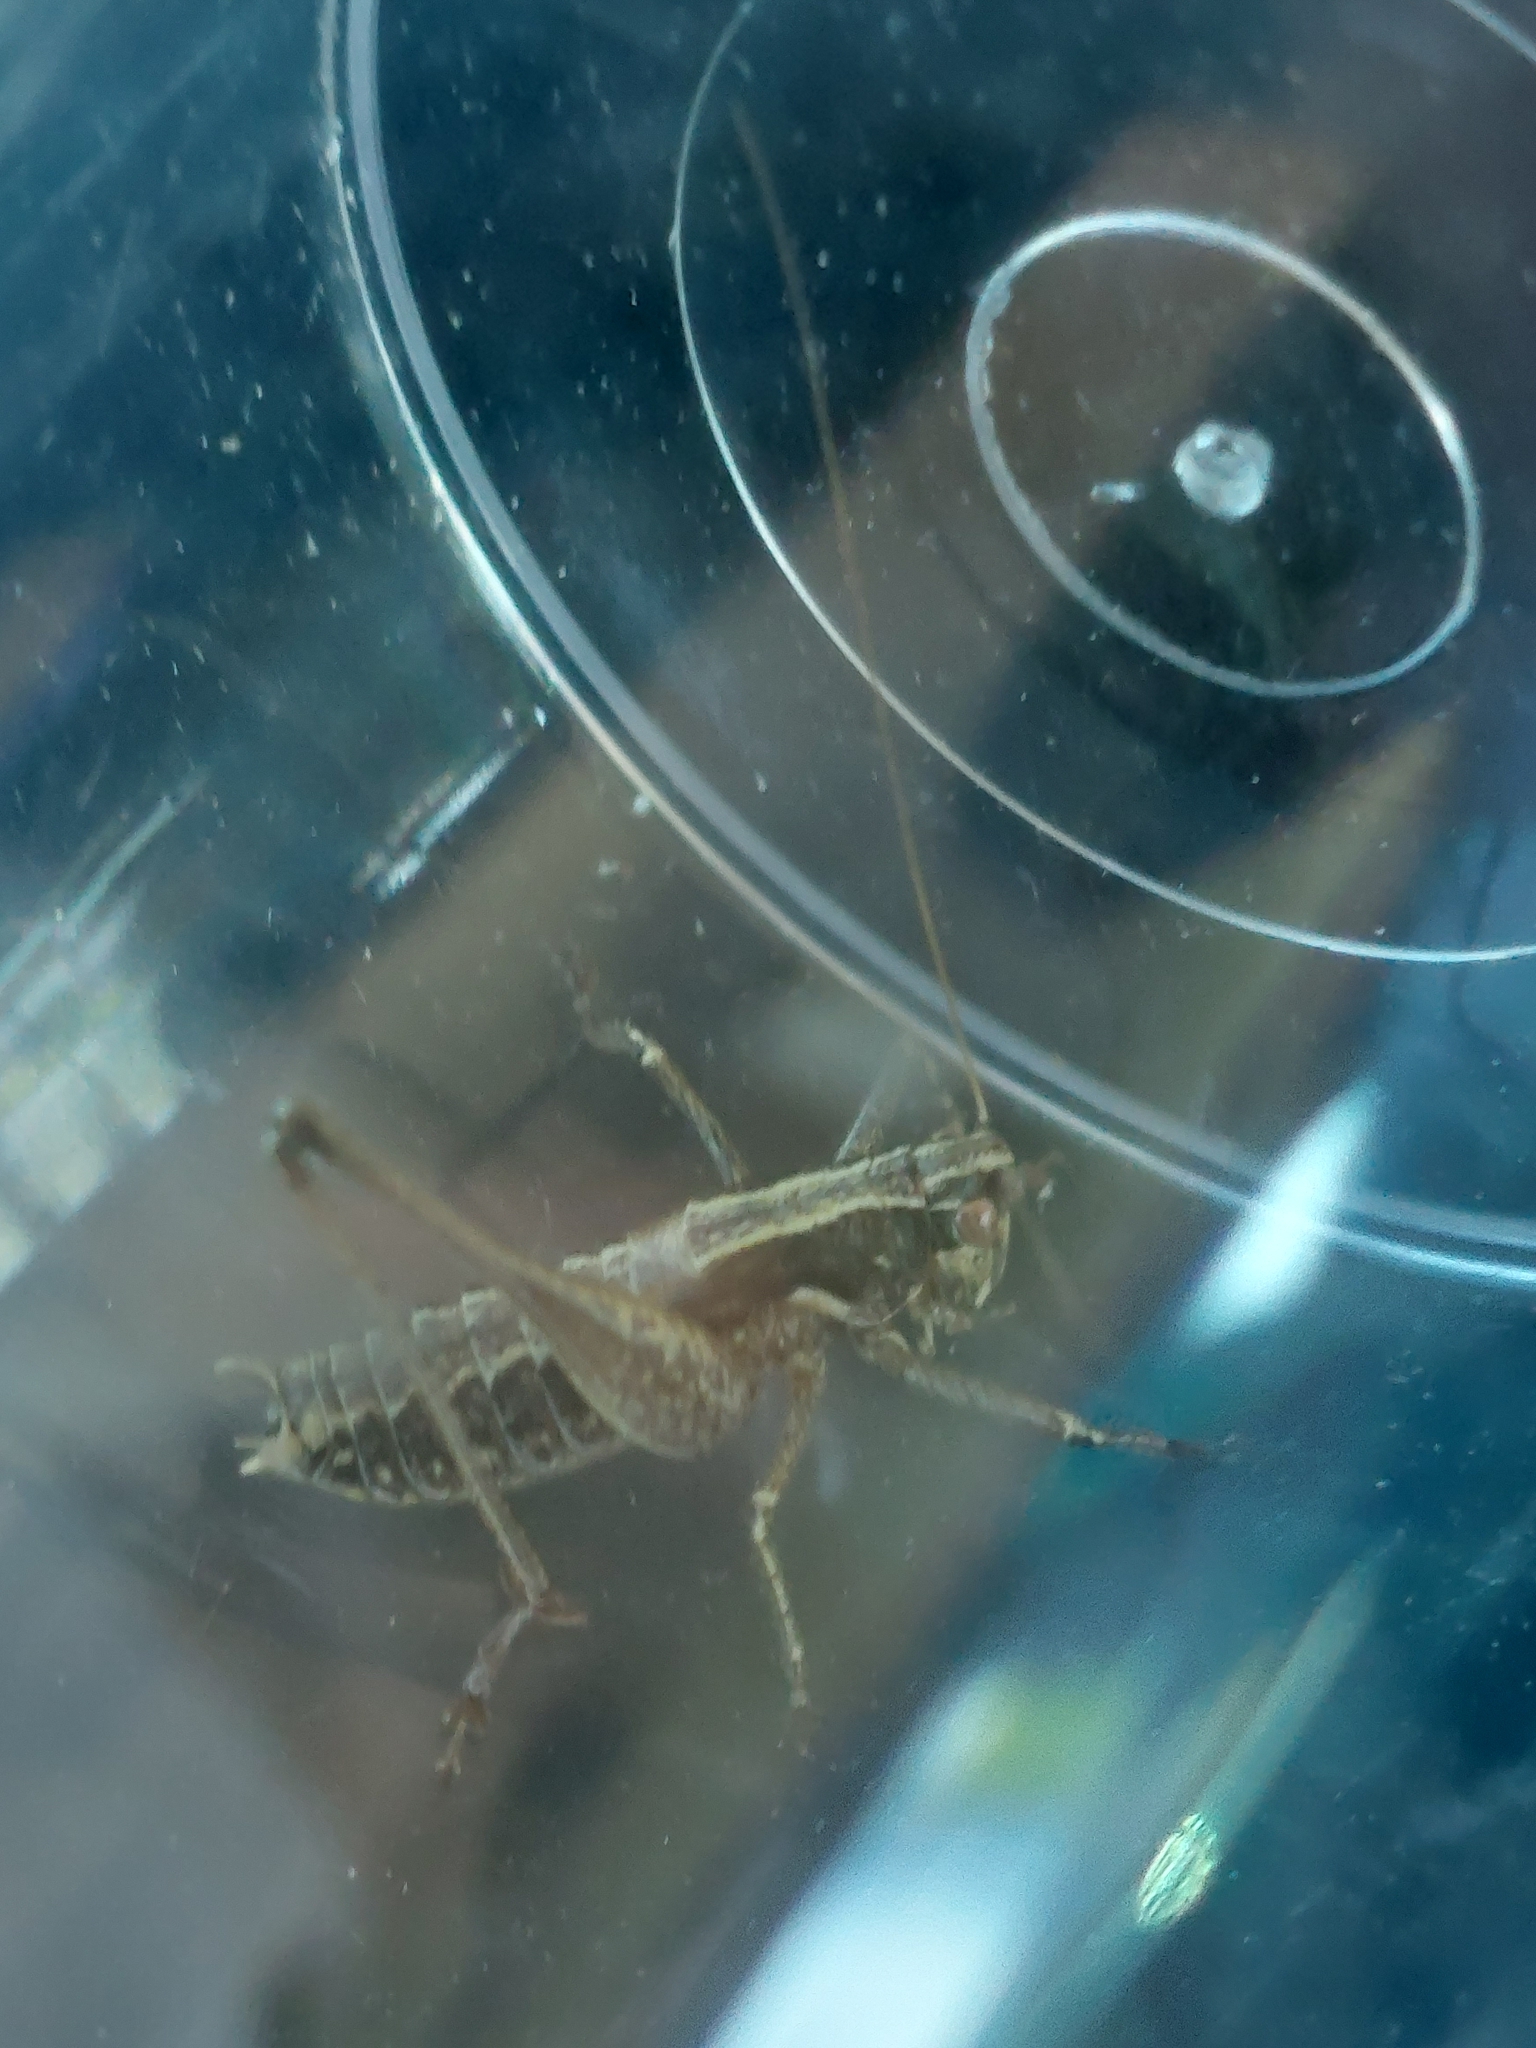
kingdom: Animalia
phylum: Arthropoda
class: Insecta
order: Orthoptera
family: Tettigoniidae
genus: Rhacocleis
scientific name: Rhacocleis germanica
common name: Mediterranean bush-cricket
